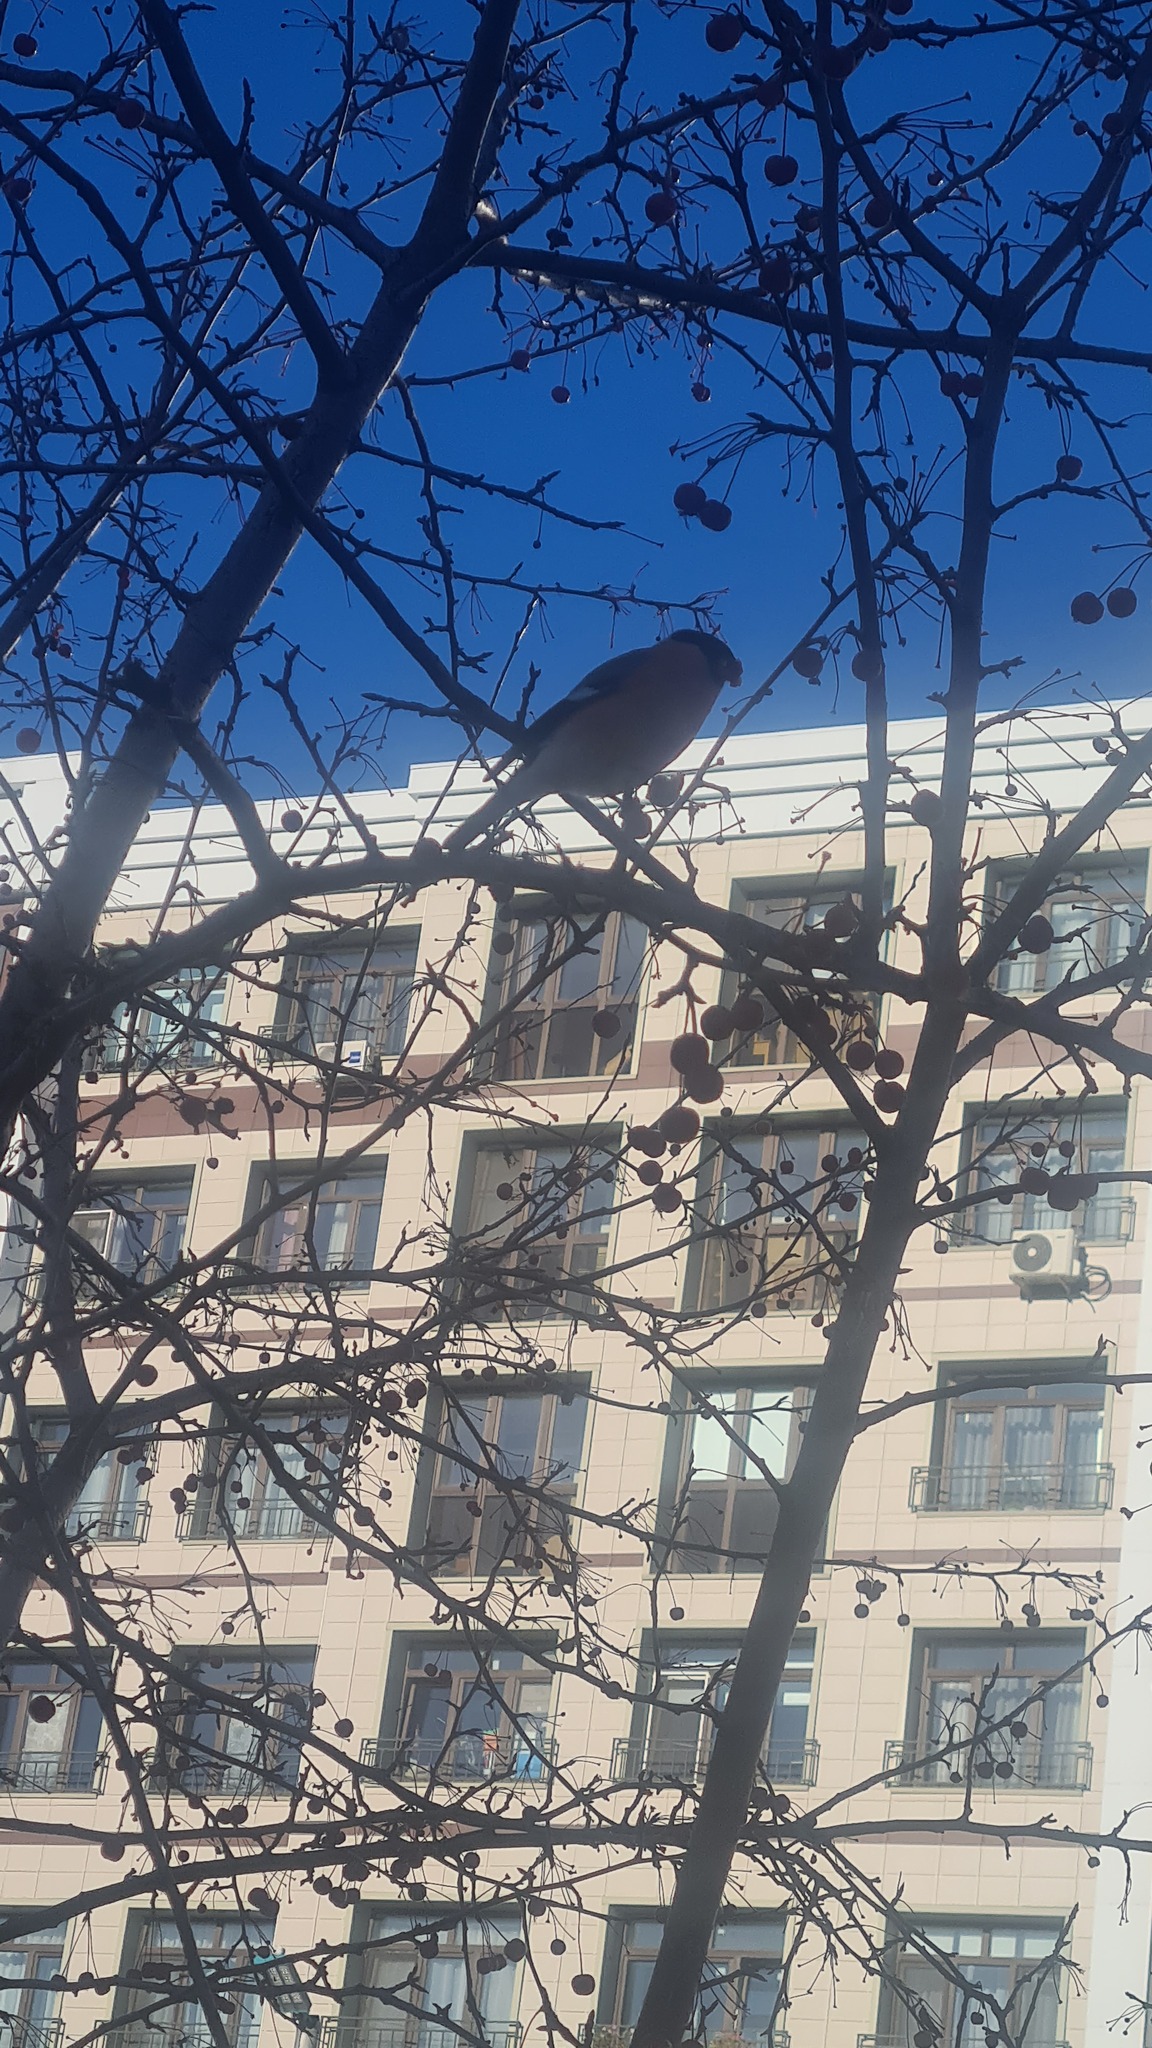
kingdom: Animalia
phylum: Chordata
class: Aves
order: Passeriformes
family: Fringillidae
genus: Pyrrhula
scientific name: Pyrrhula pyrrhula
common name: Eurasian bullfinch
